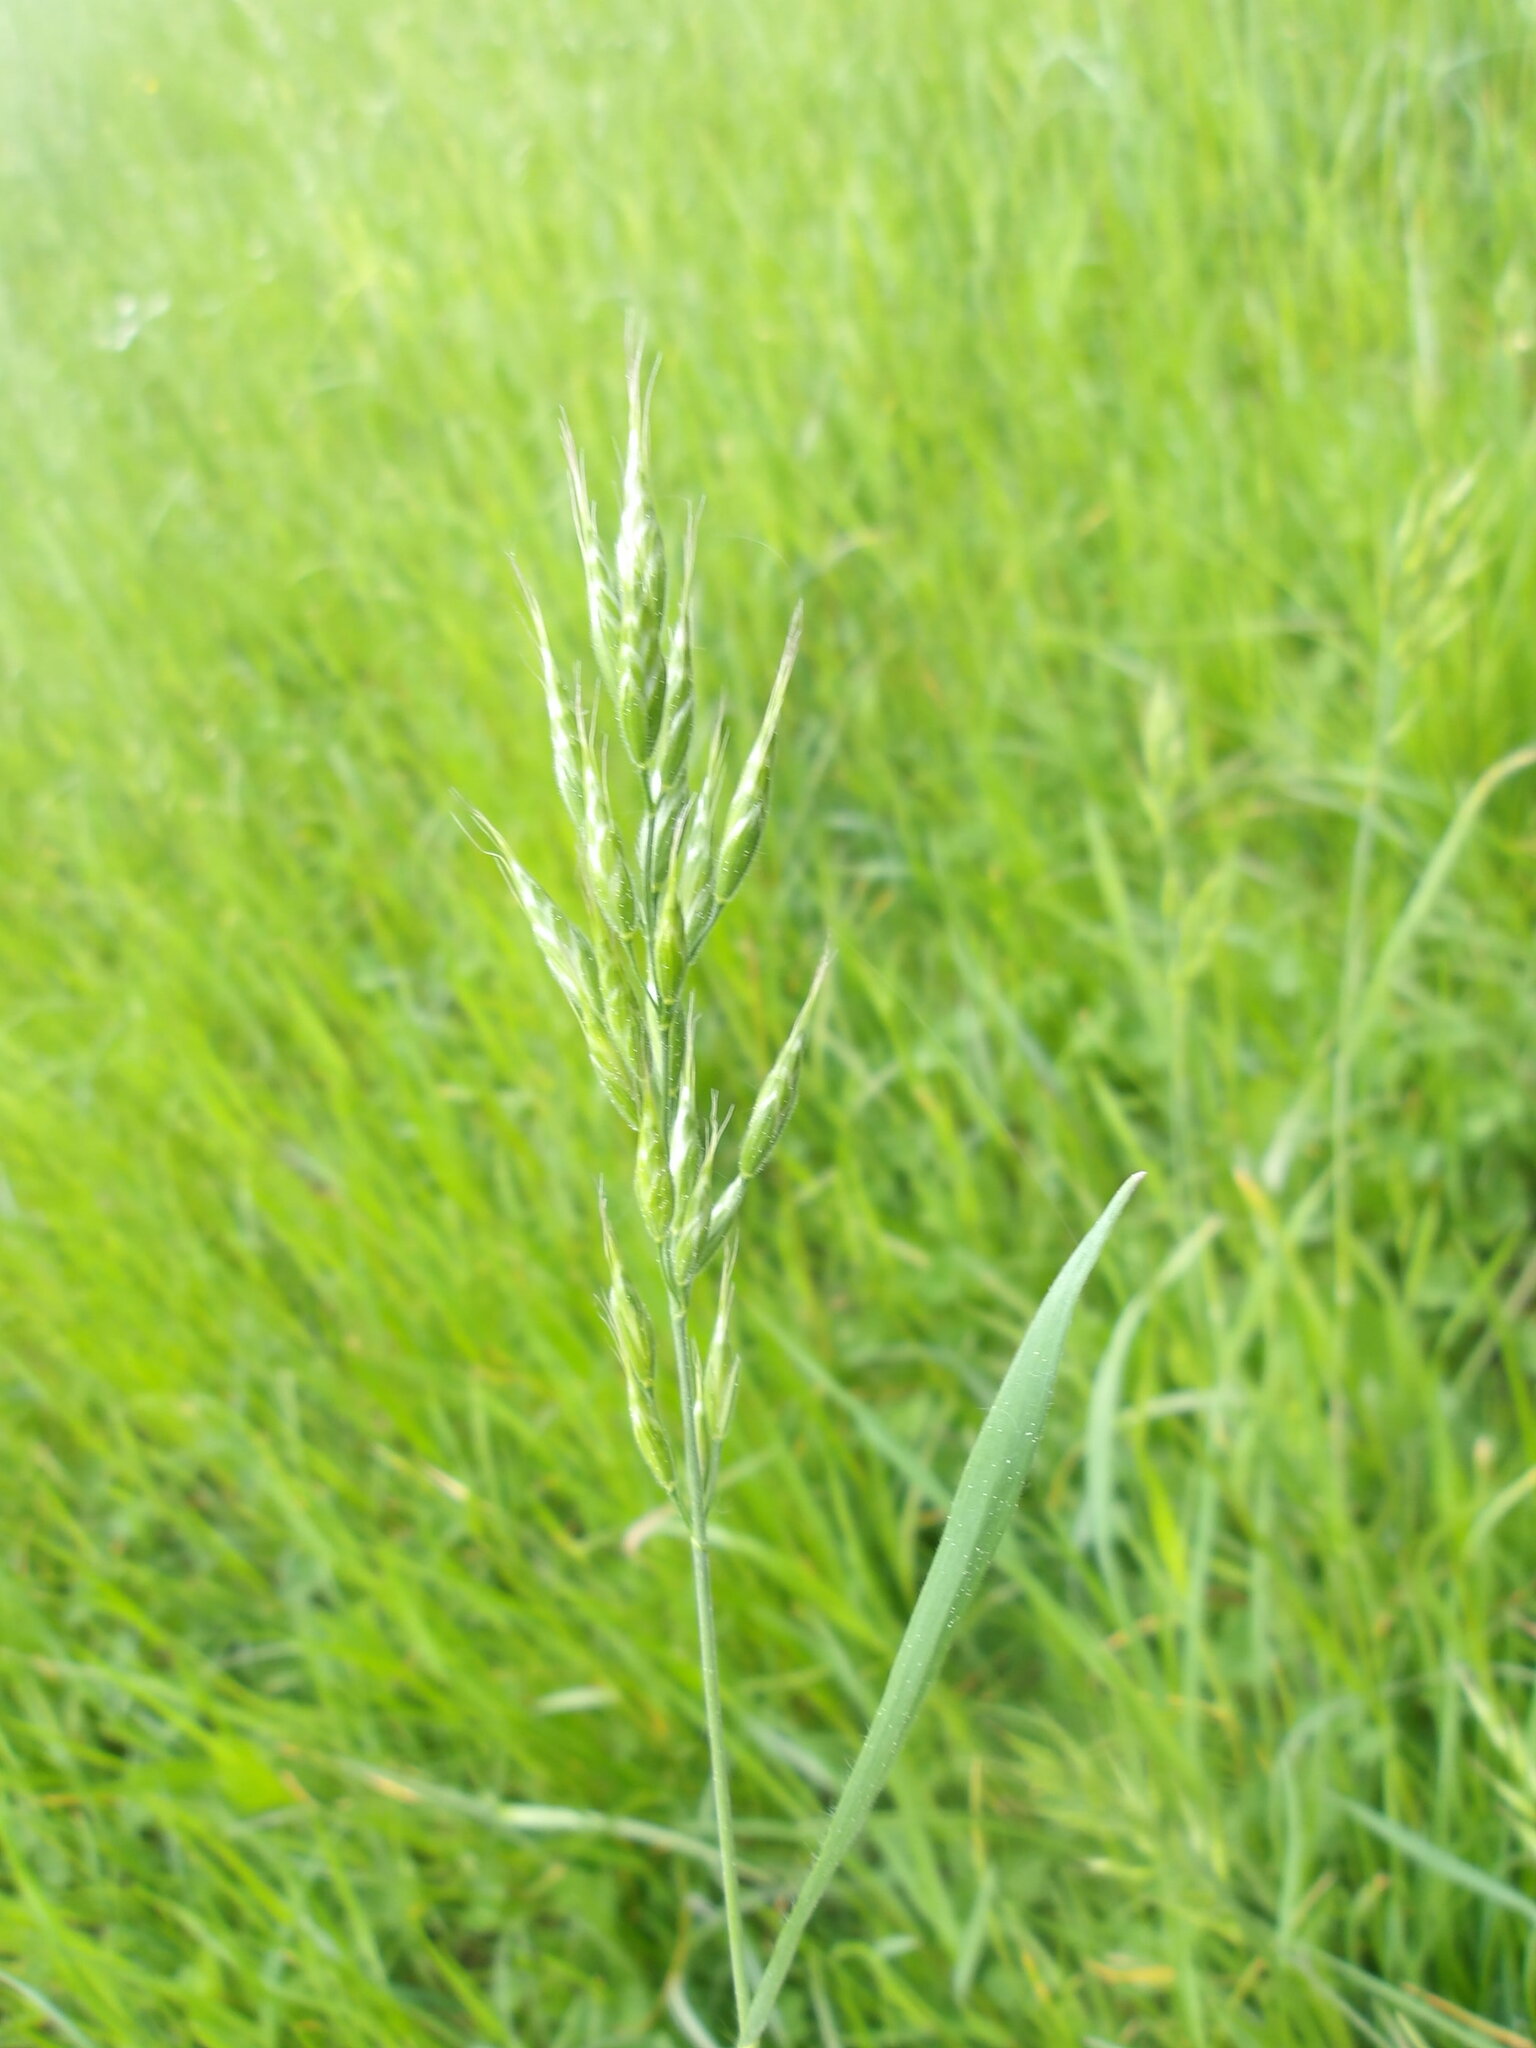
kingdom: Plantae
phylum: Tracheophyta
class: Liliopsida
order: Poales
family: Poaceae
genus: Bromus
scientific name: Bromus hordeaceus
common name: Soft brome
